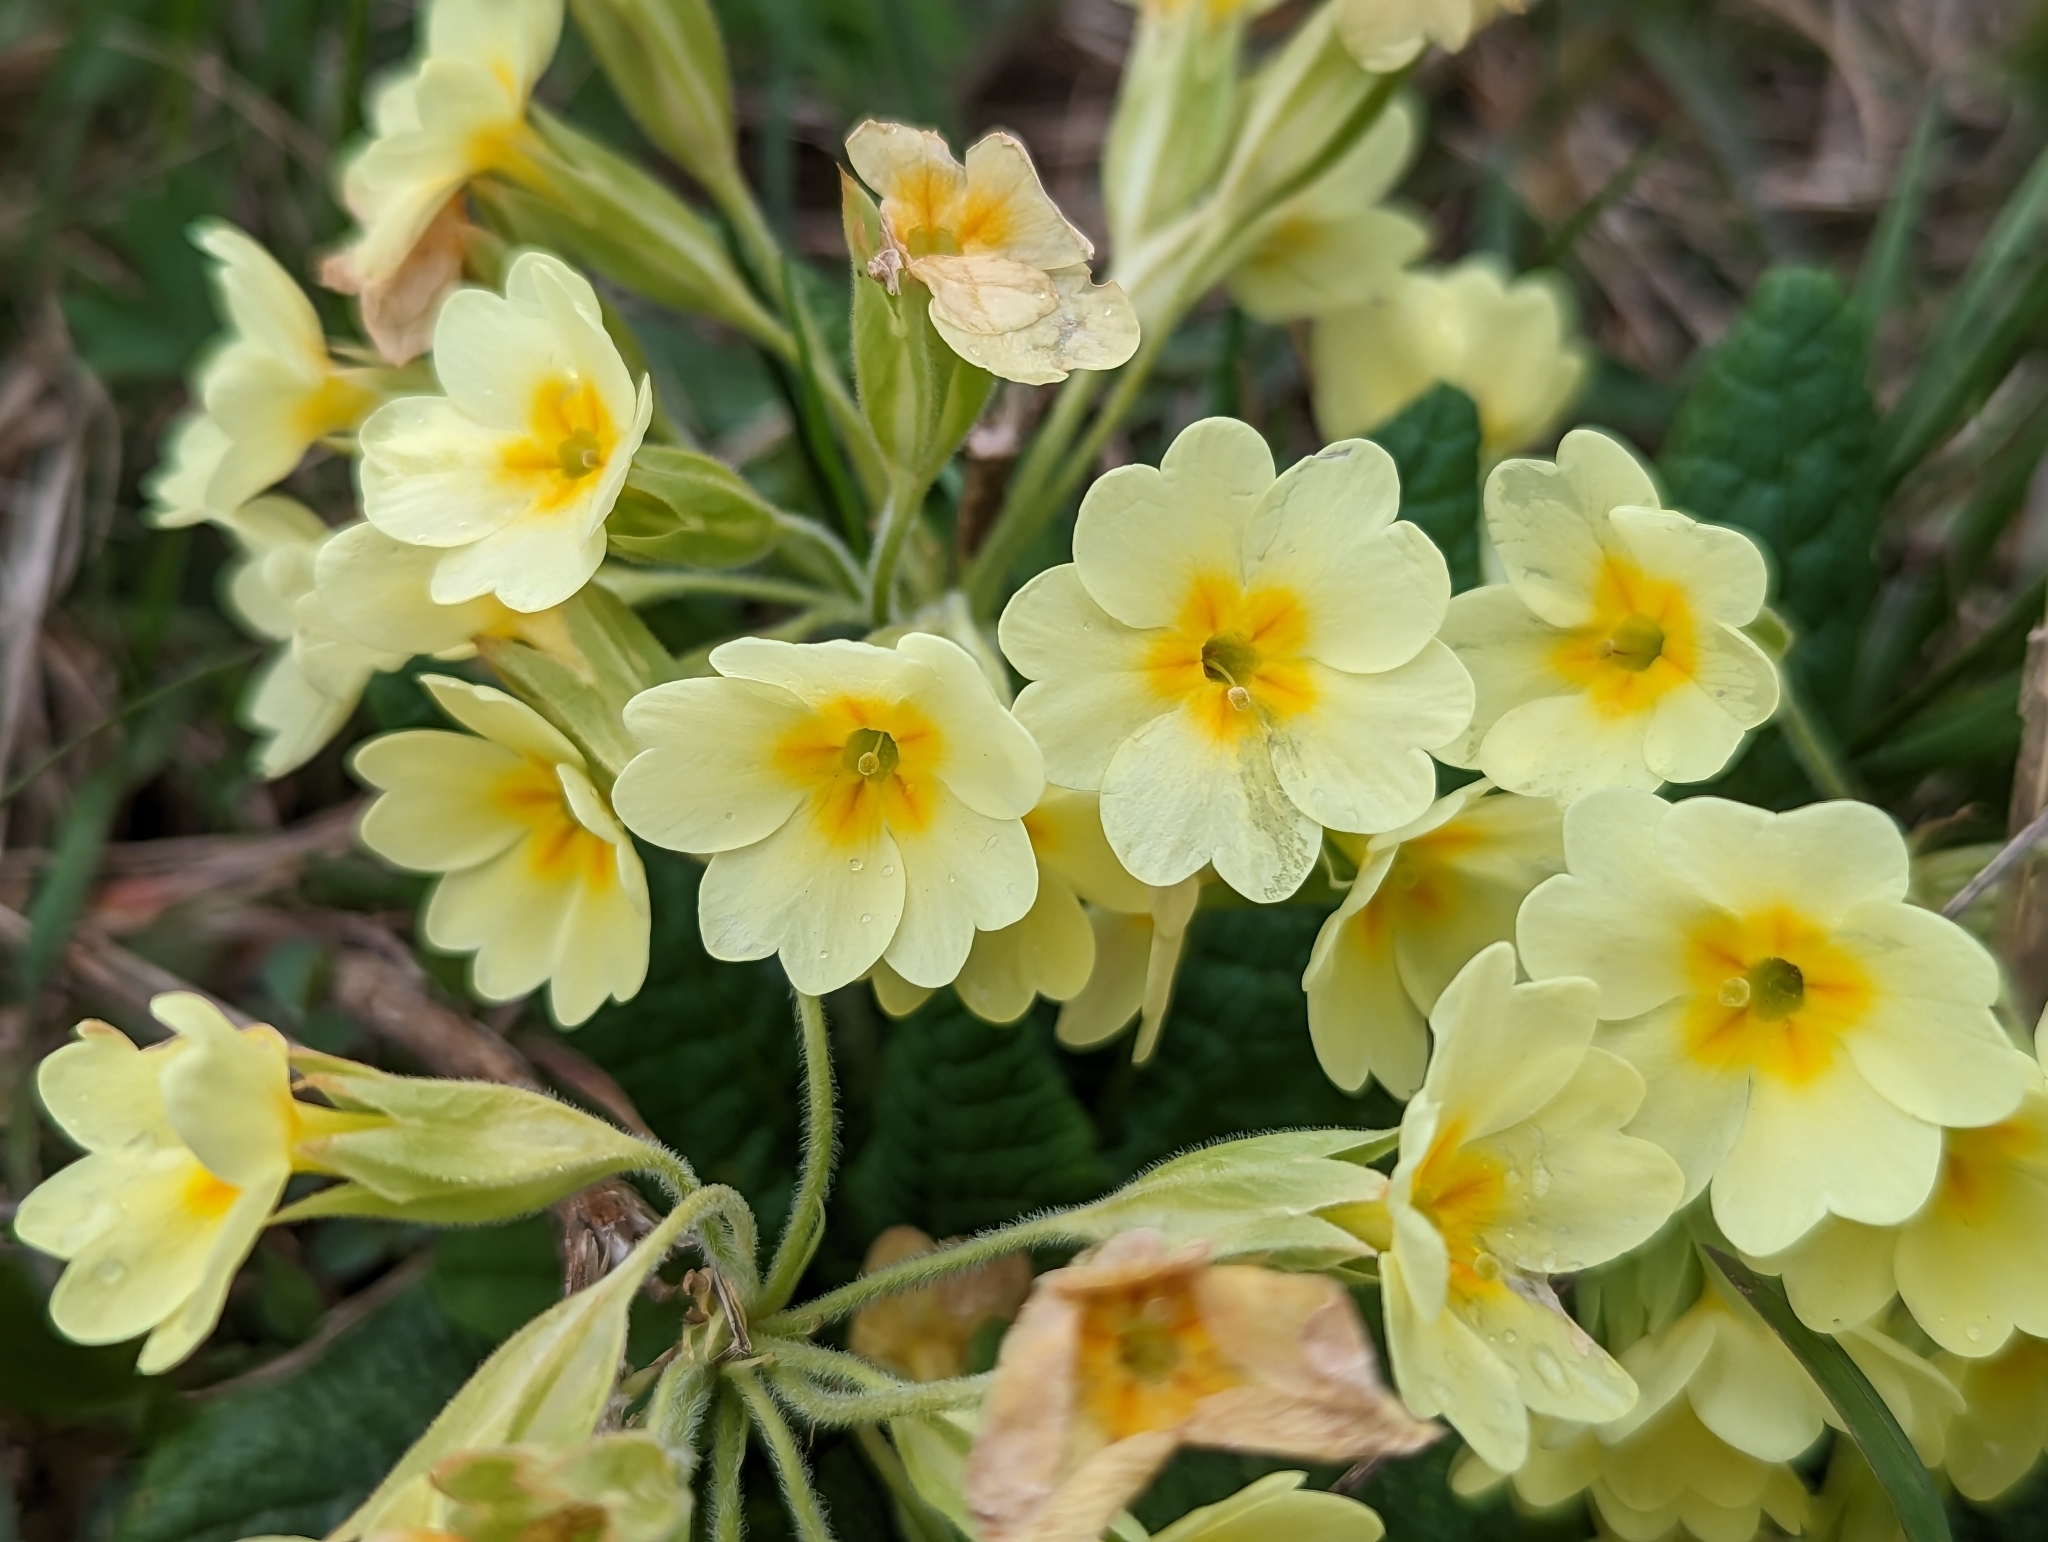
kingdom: Plantae
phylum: Tracheophyta
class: Magnoliopsida
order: Ericales
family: Primulaceae
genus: Primula
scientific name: Primula polyantha
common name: False oxlip
